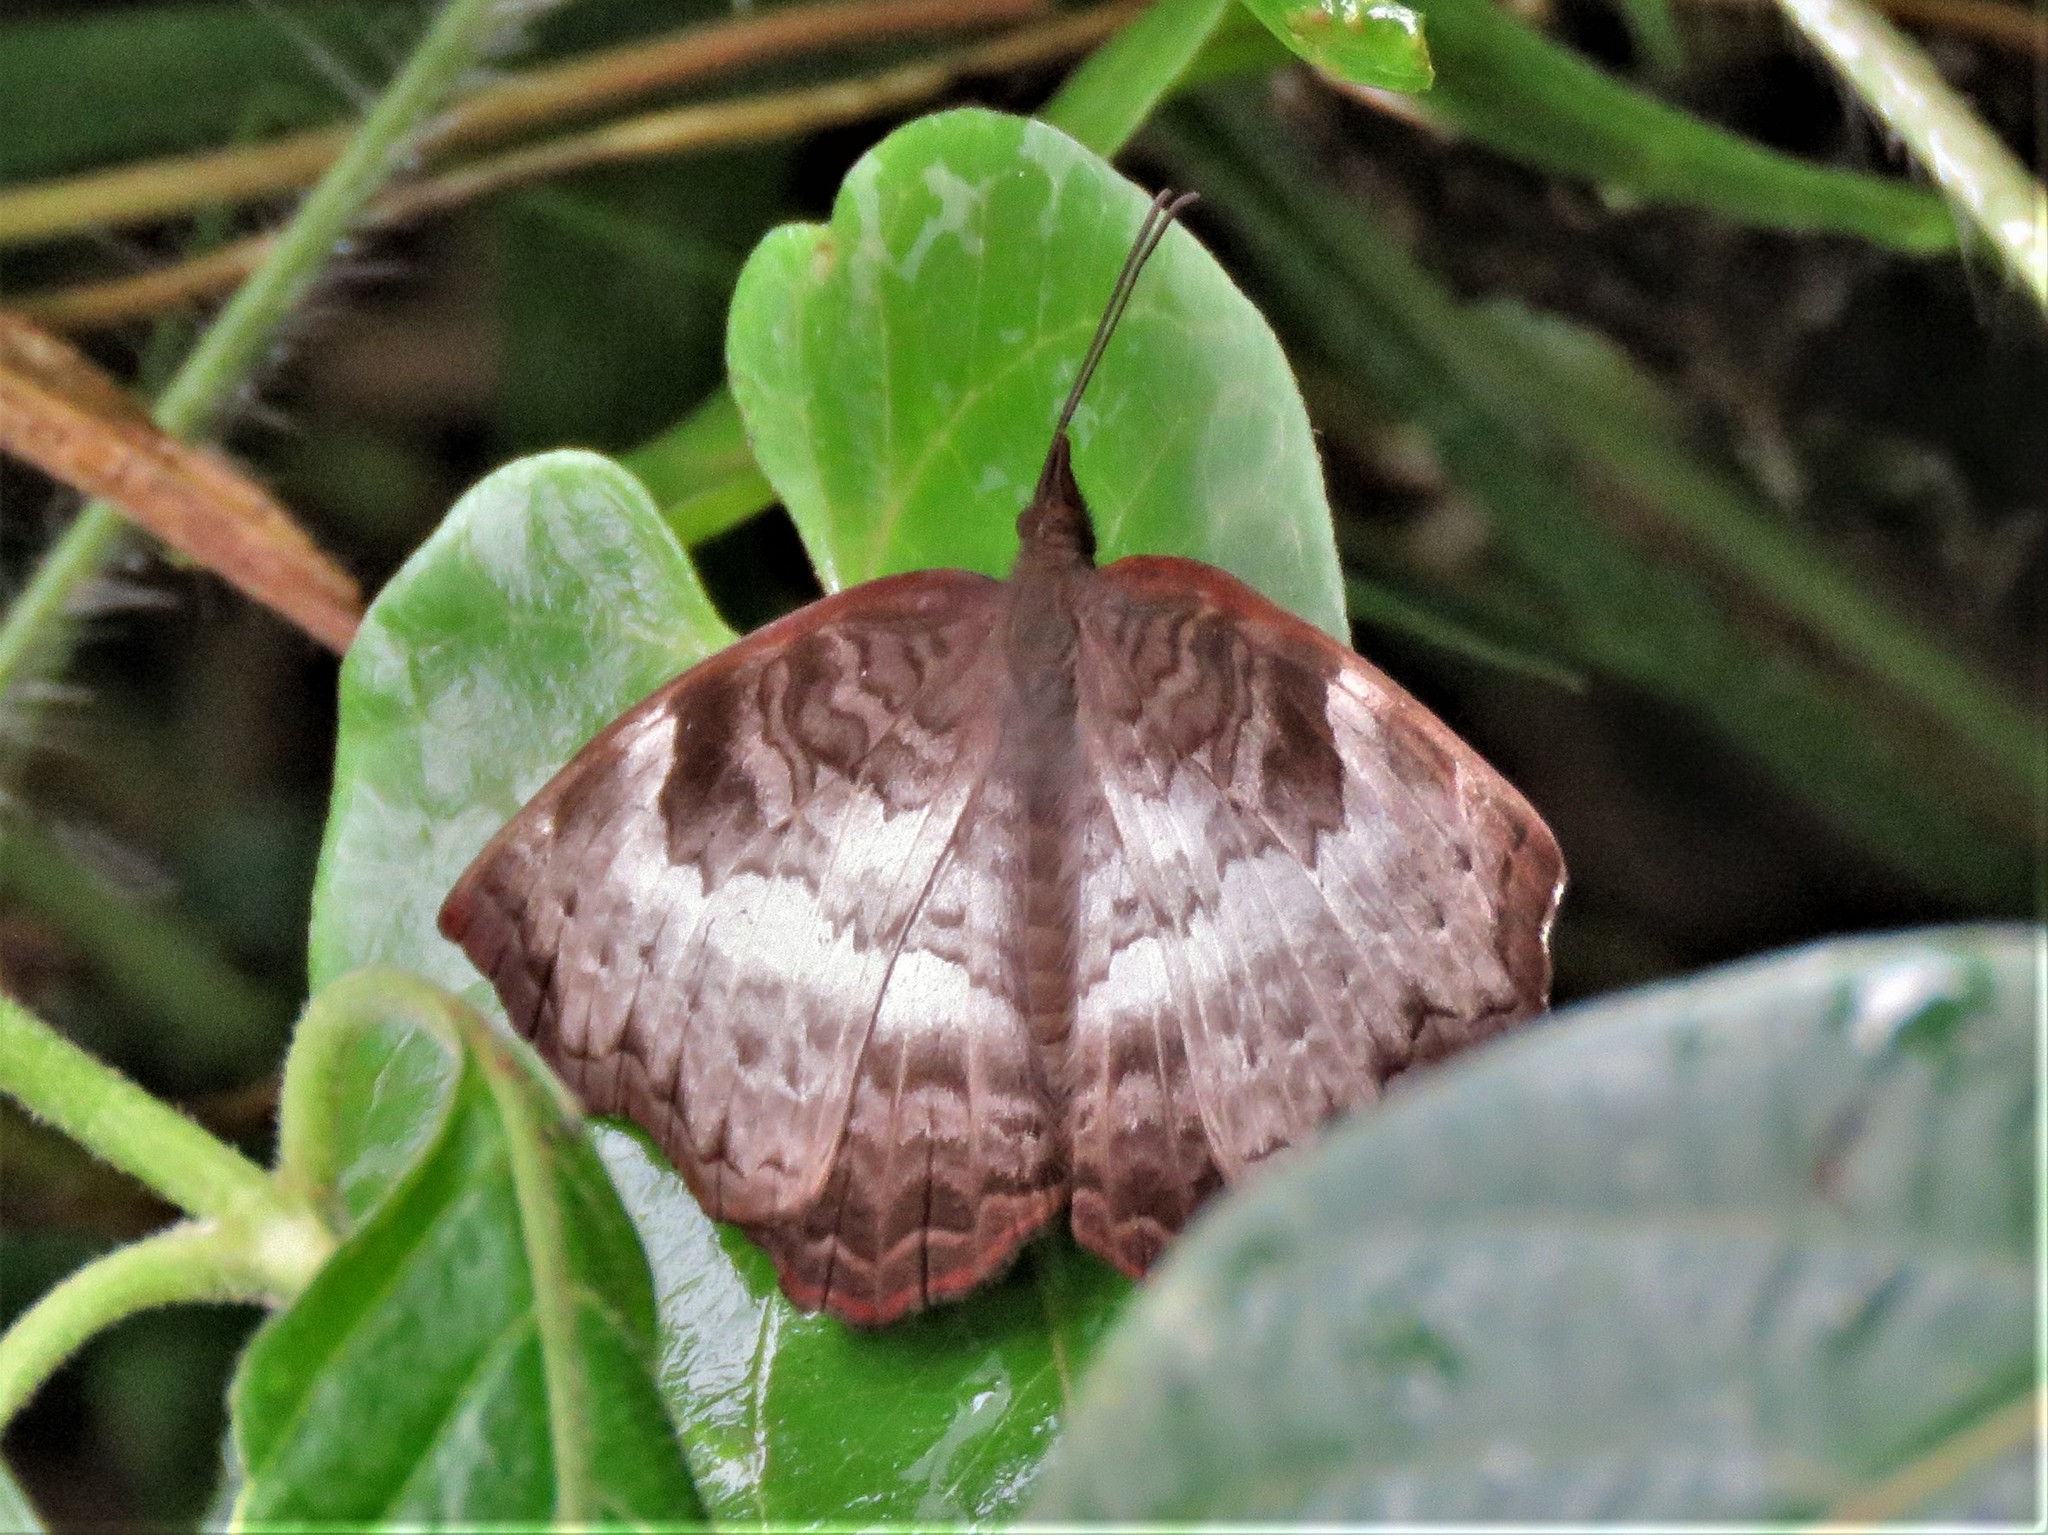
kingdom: Animalia
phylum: Arthropoda
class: Insecta
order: Lepidoptera
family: Nymphalidae
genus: Ariadne
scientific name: Ariadne enotrea
